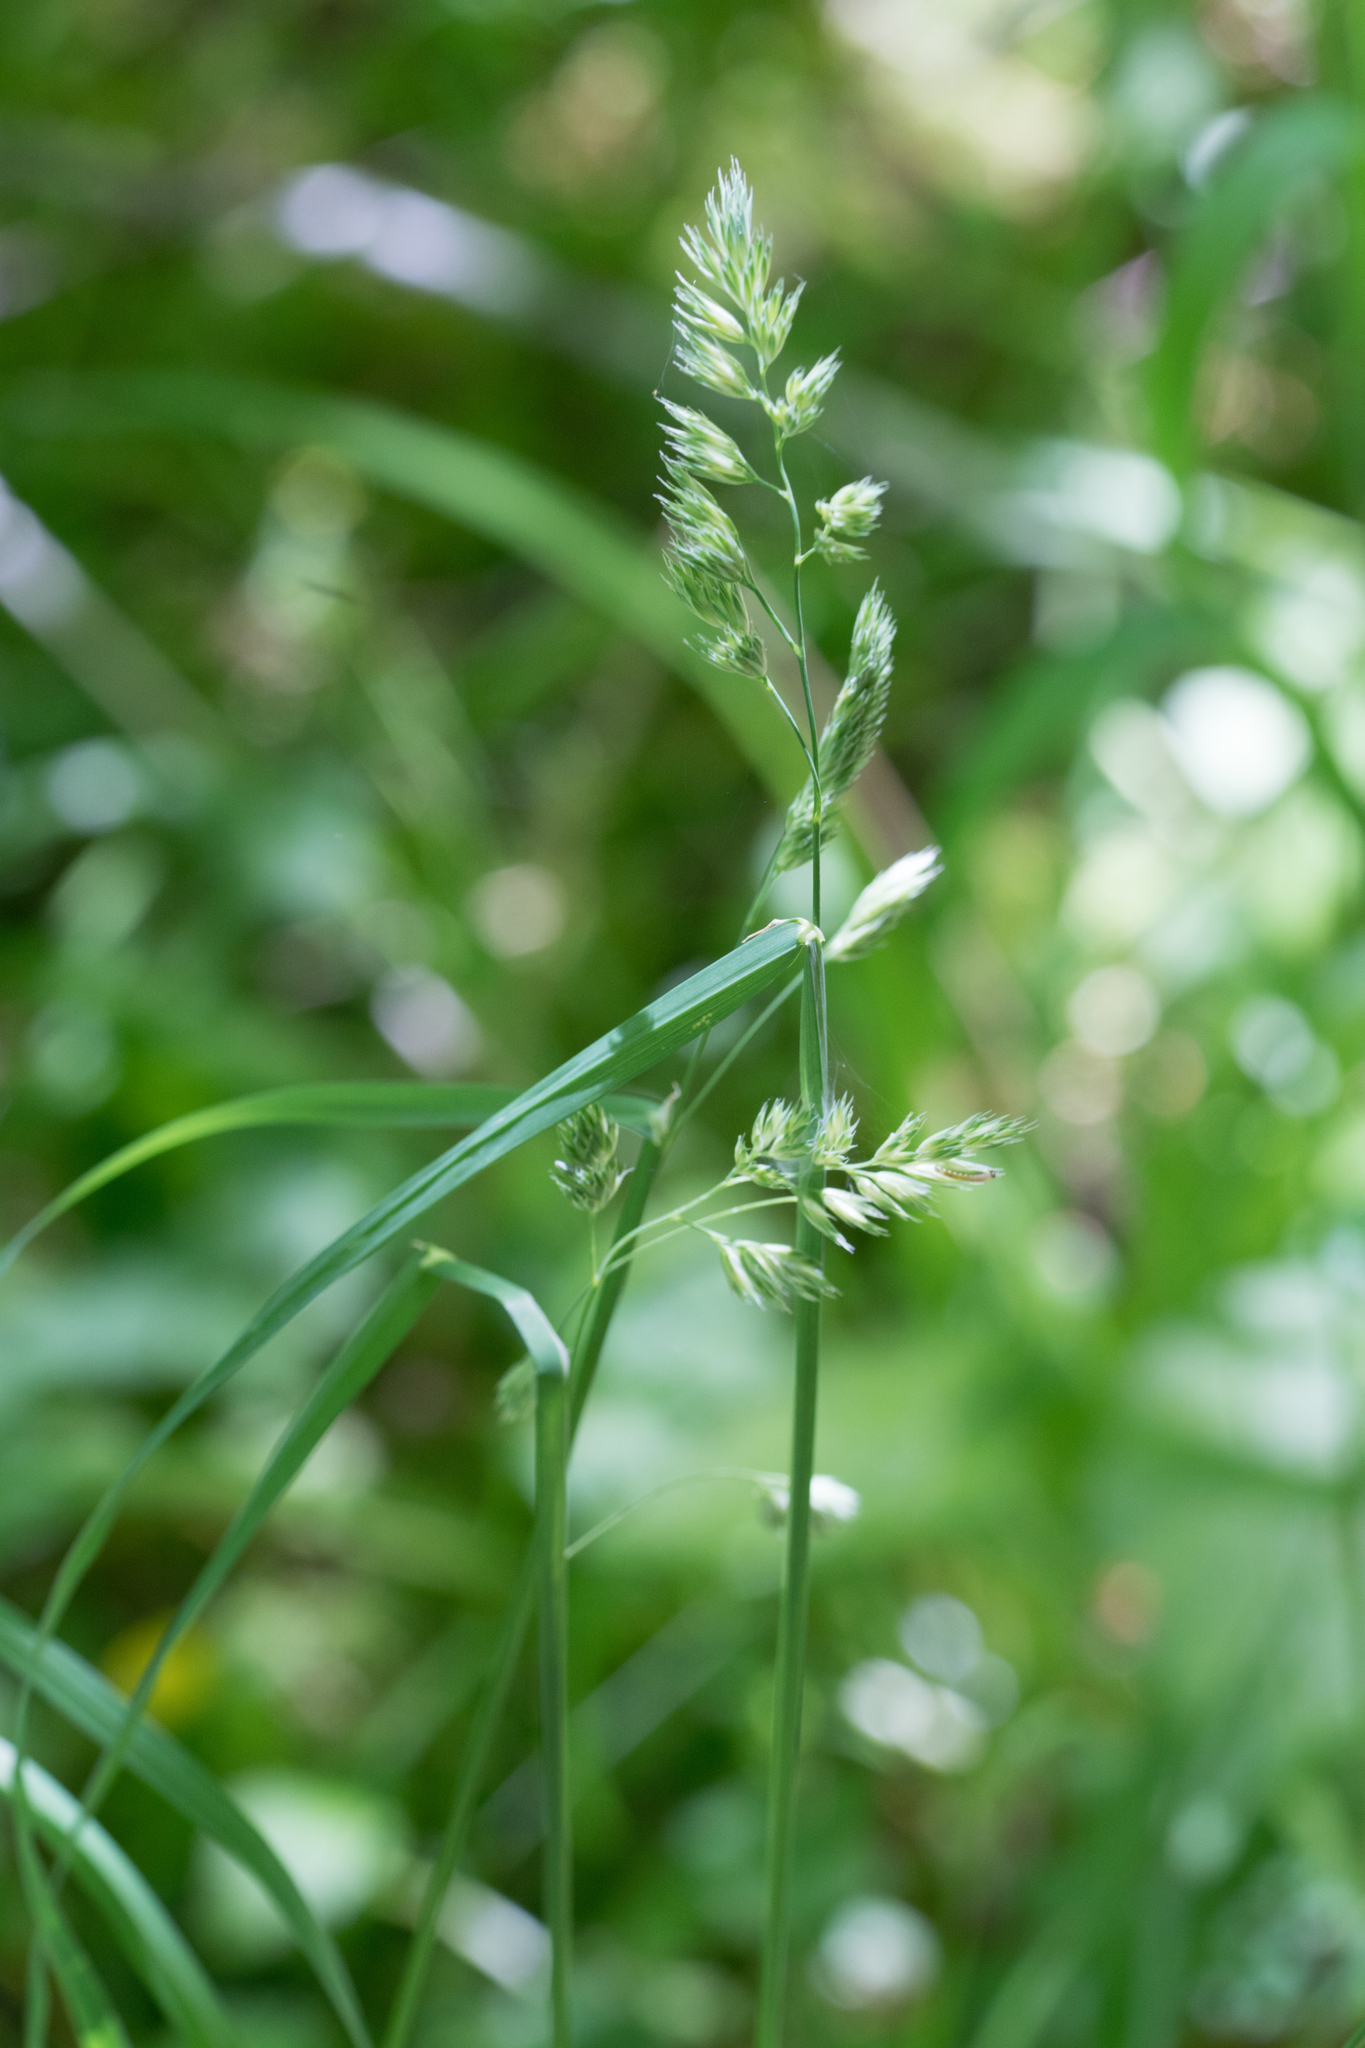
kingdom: Plantae
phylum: Tracheophyta
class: Liliopsida
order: Poales
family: Poaceae
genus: Dactylis
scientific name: Dactylis glomerata
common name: Orchardgrass
